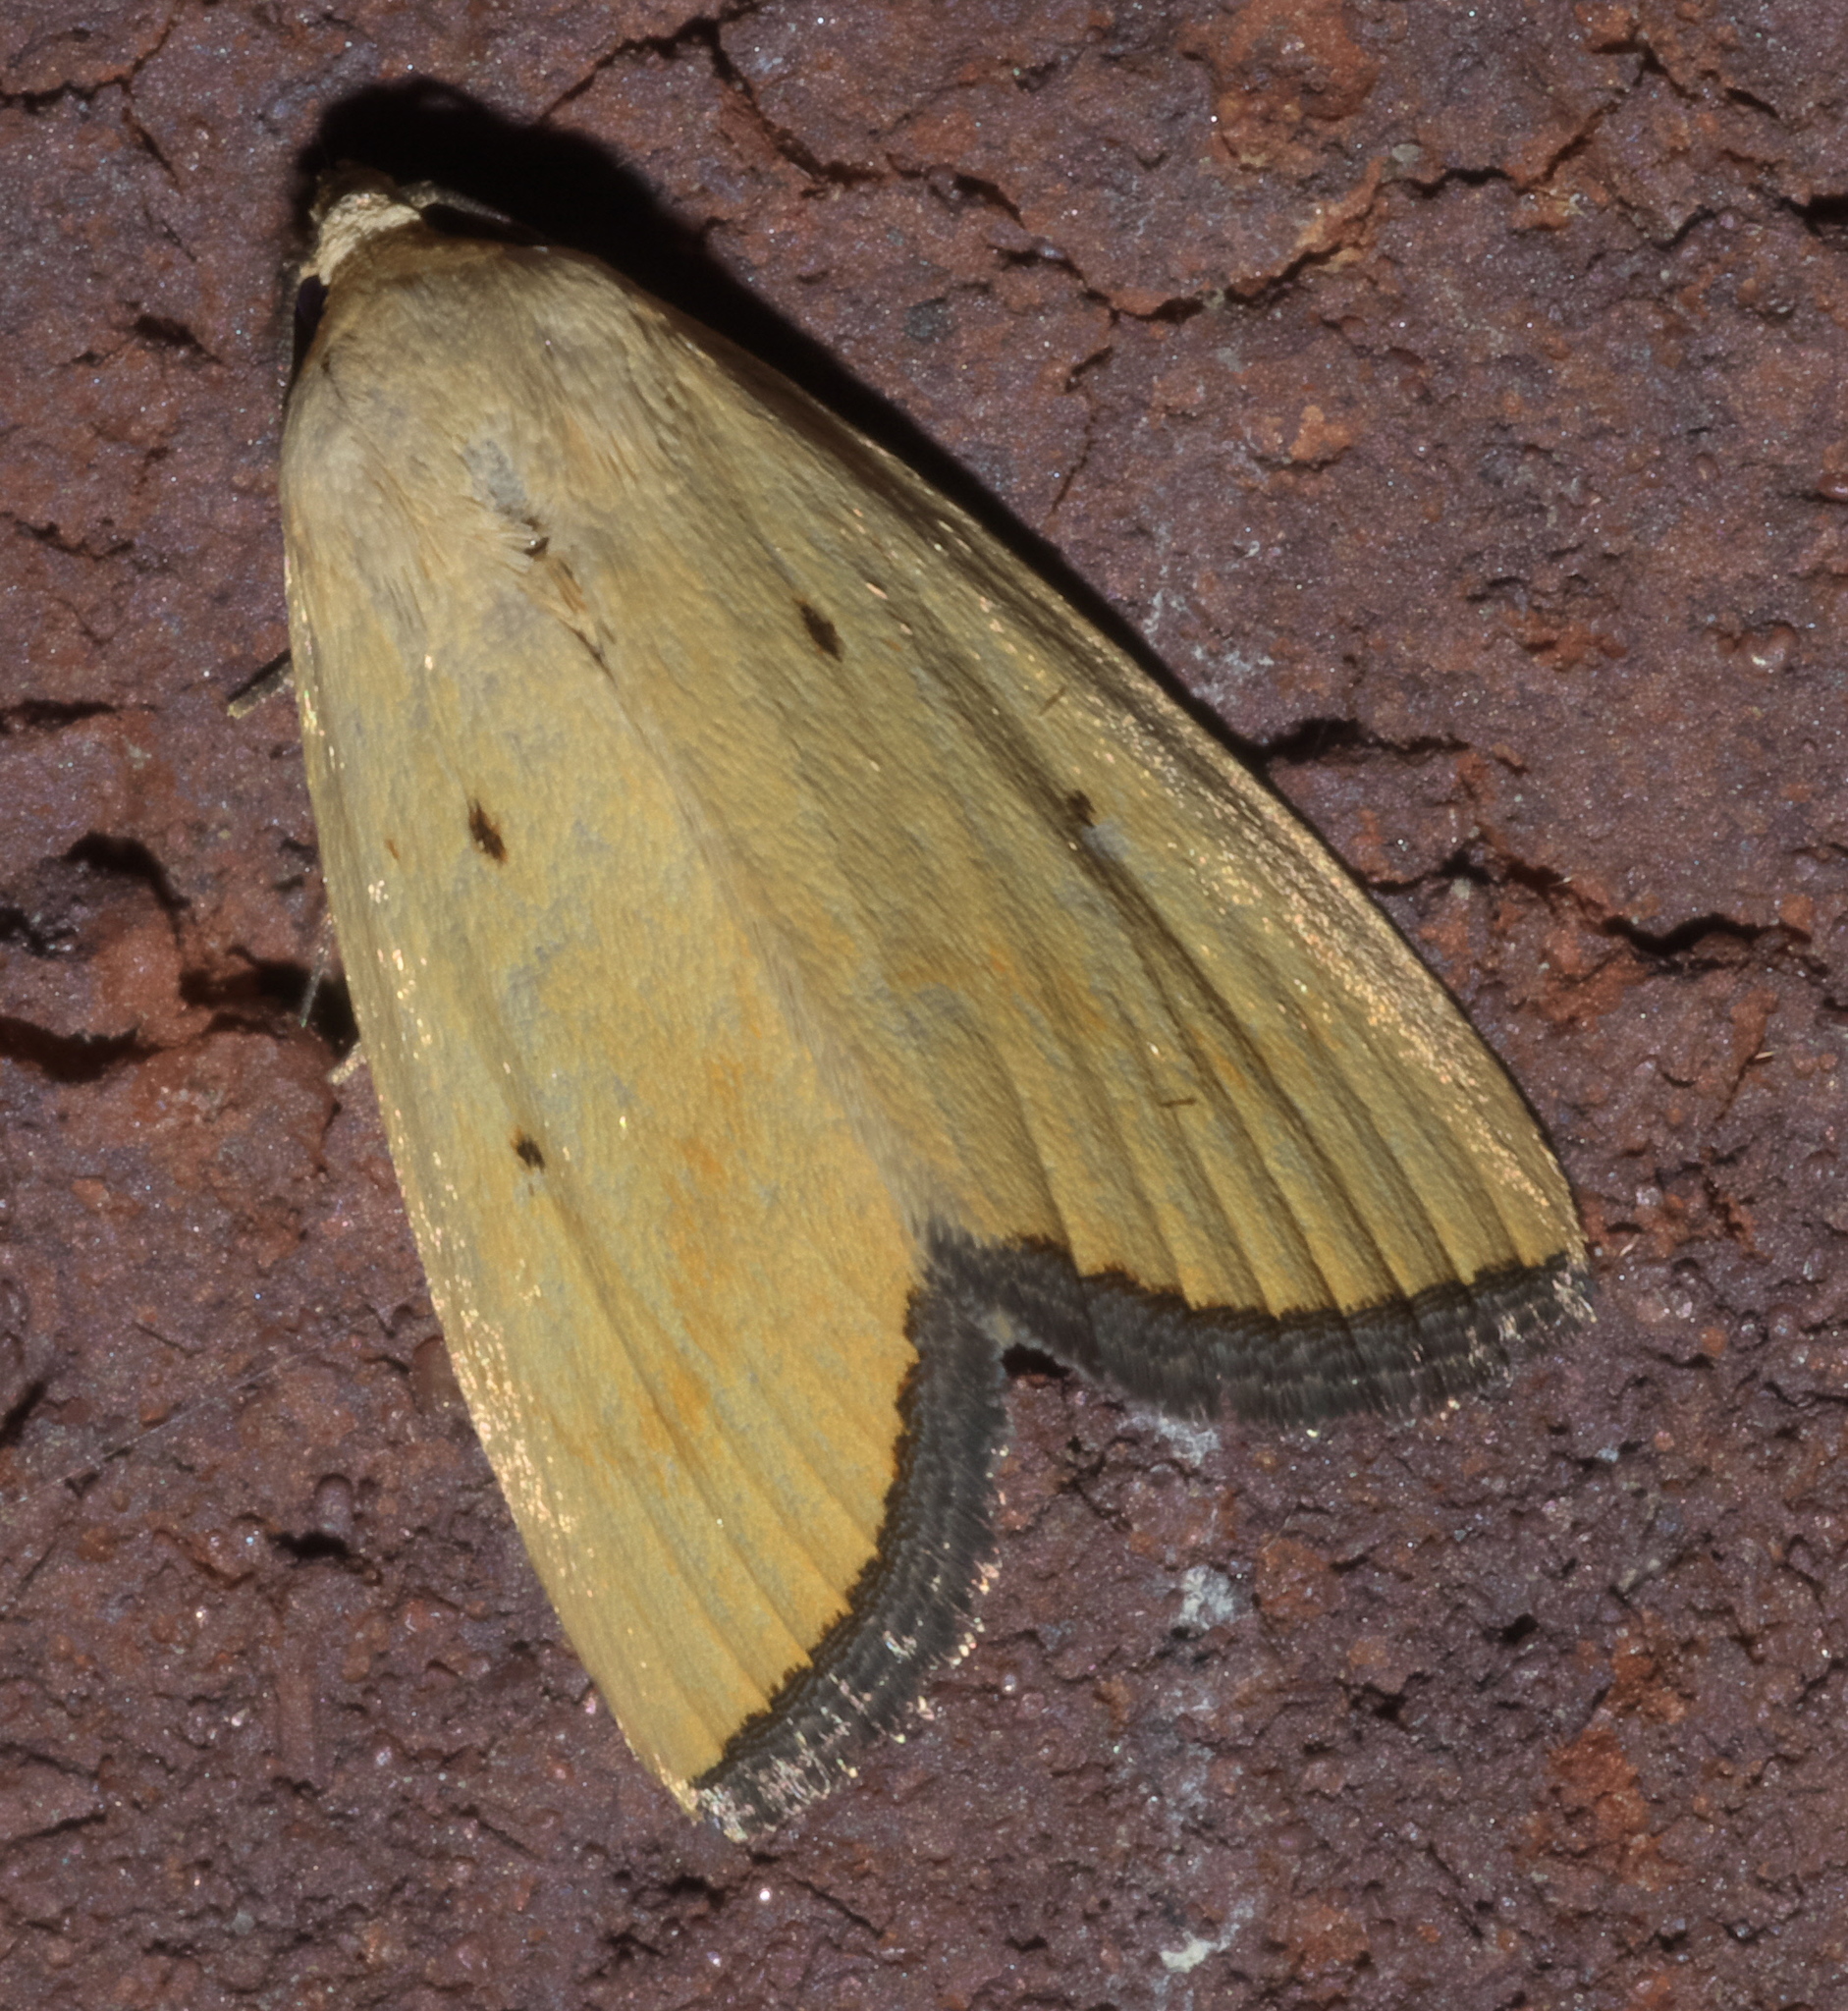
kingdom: Animalia
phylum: Arthropoda
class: Insecta
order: Lepidoptera
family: Noctuidae
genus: Marimatha
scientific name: Marimatha nigrofimbria
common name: Black-bordered lemon moth
